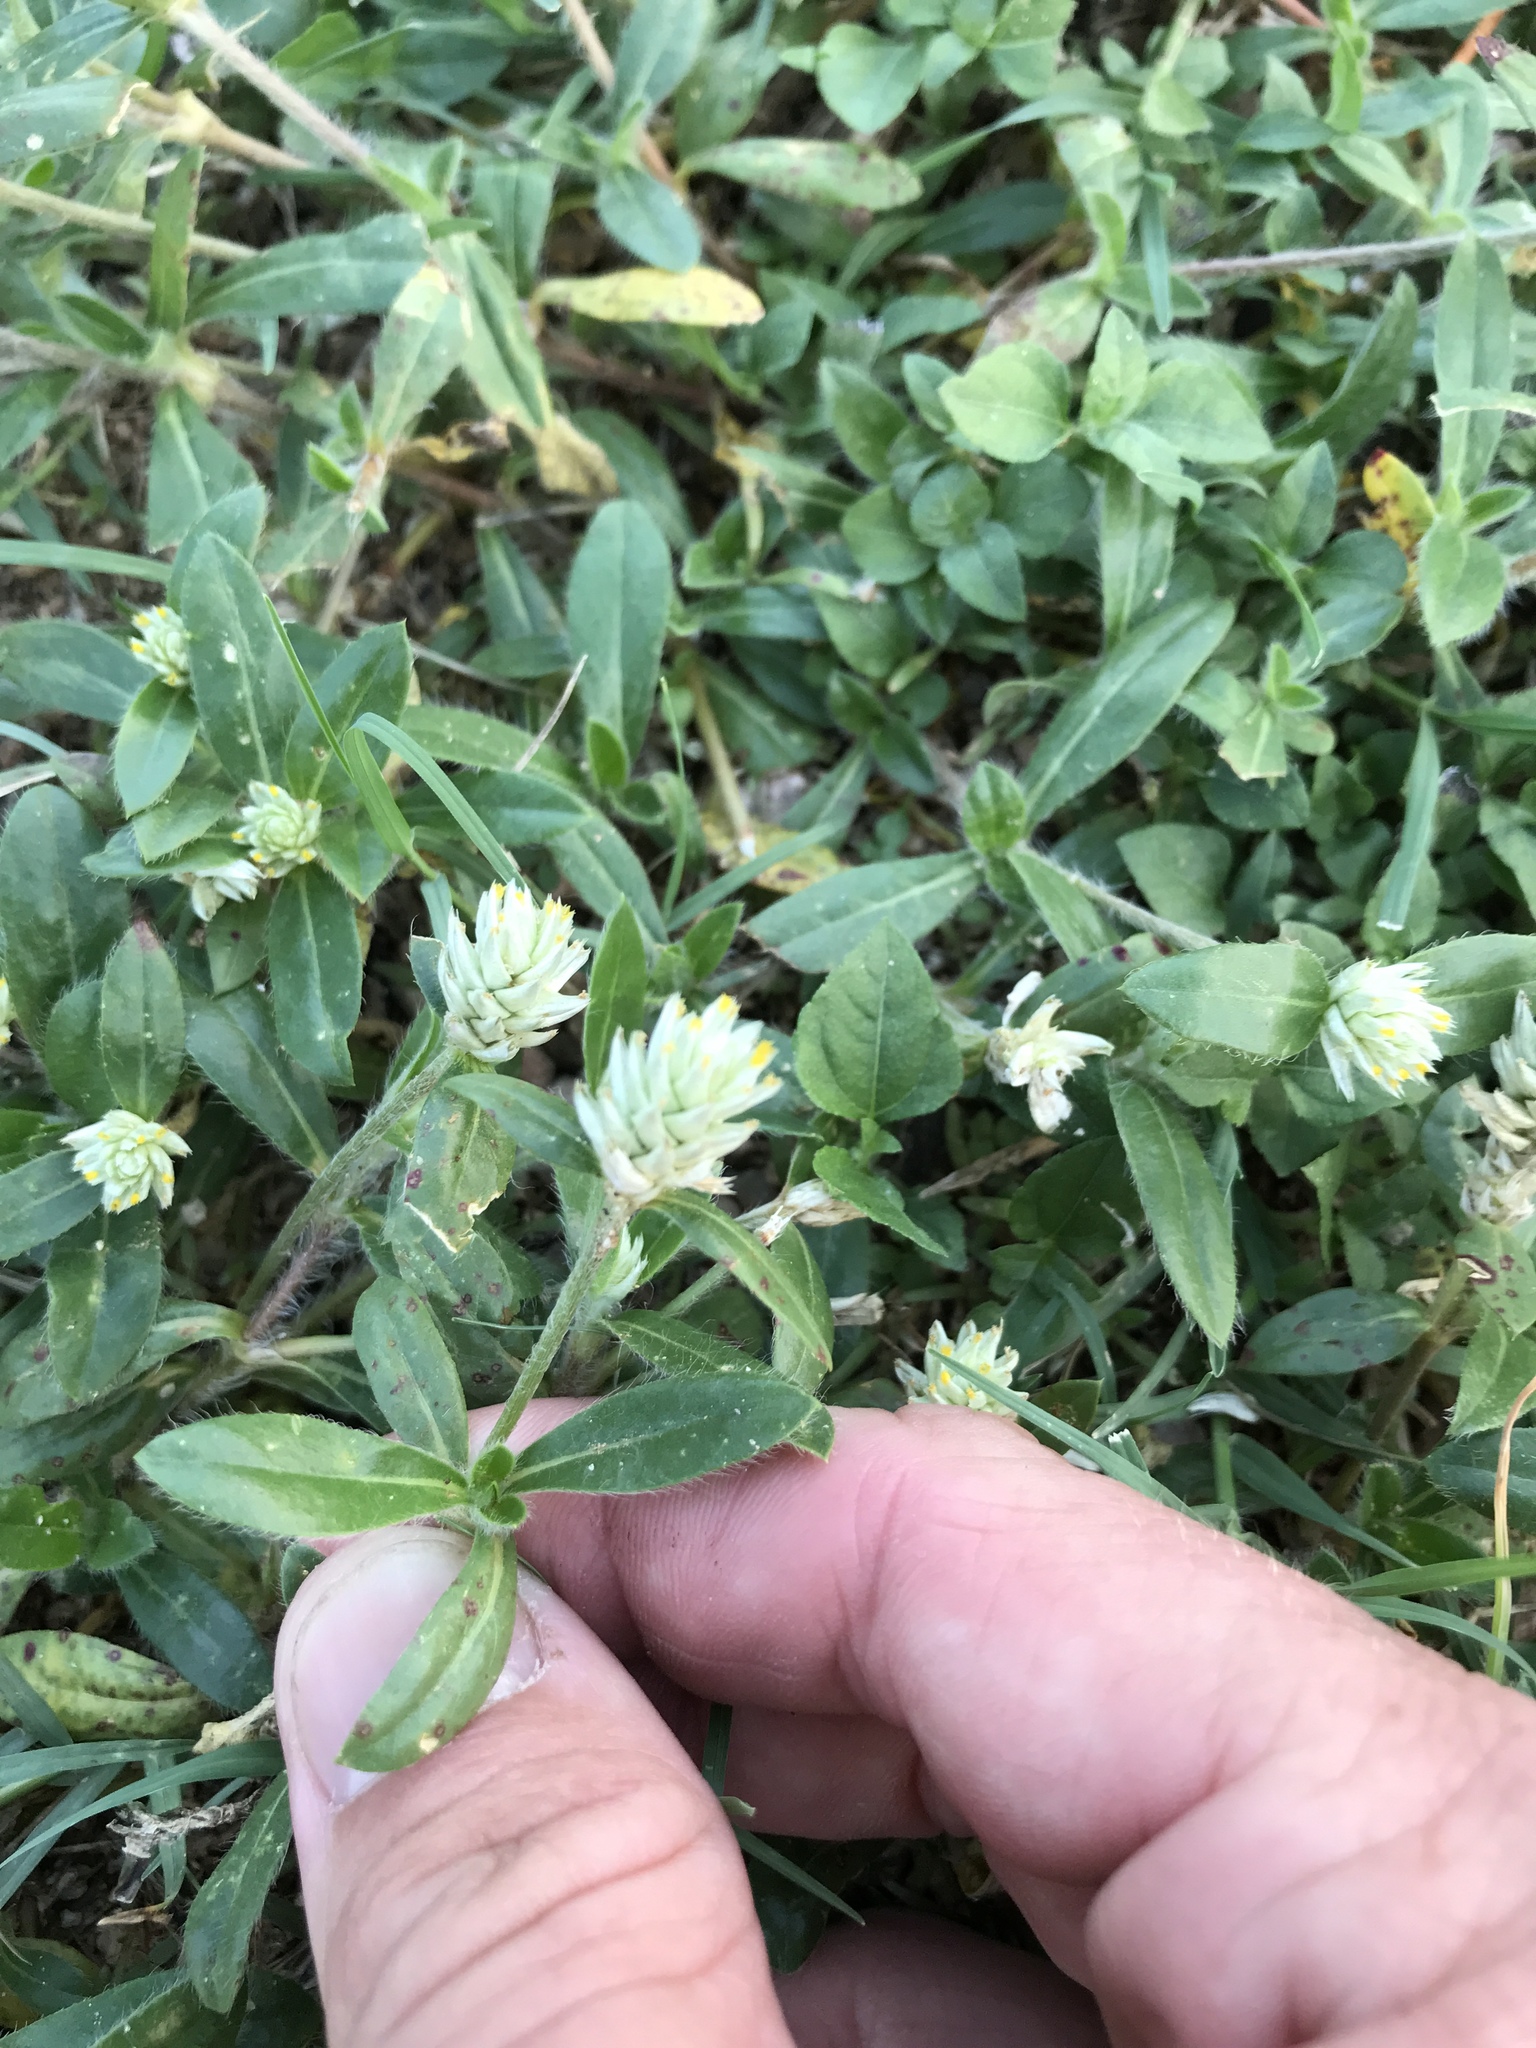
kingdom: Plantae
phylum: Tracheophyta
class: Magnoliopsida
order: Caryophyllales
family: Amaranthaceae
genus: Gomphrena
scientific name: Gomphrena serrata
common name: Arrasa con todo
